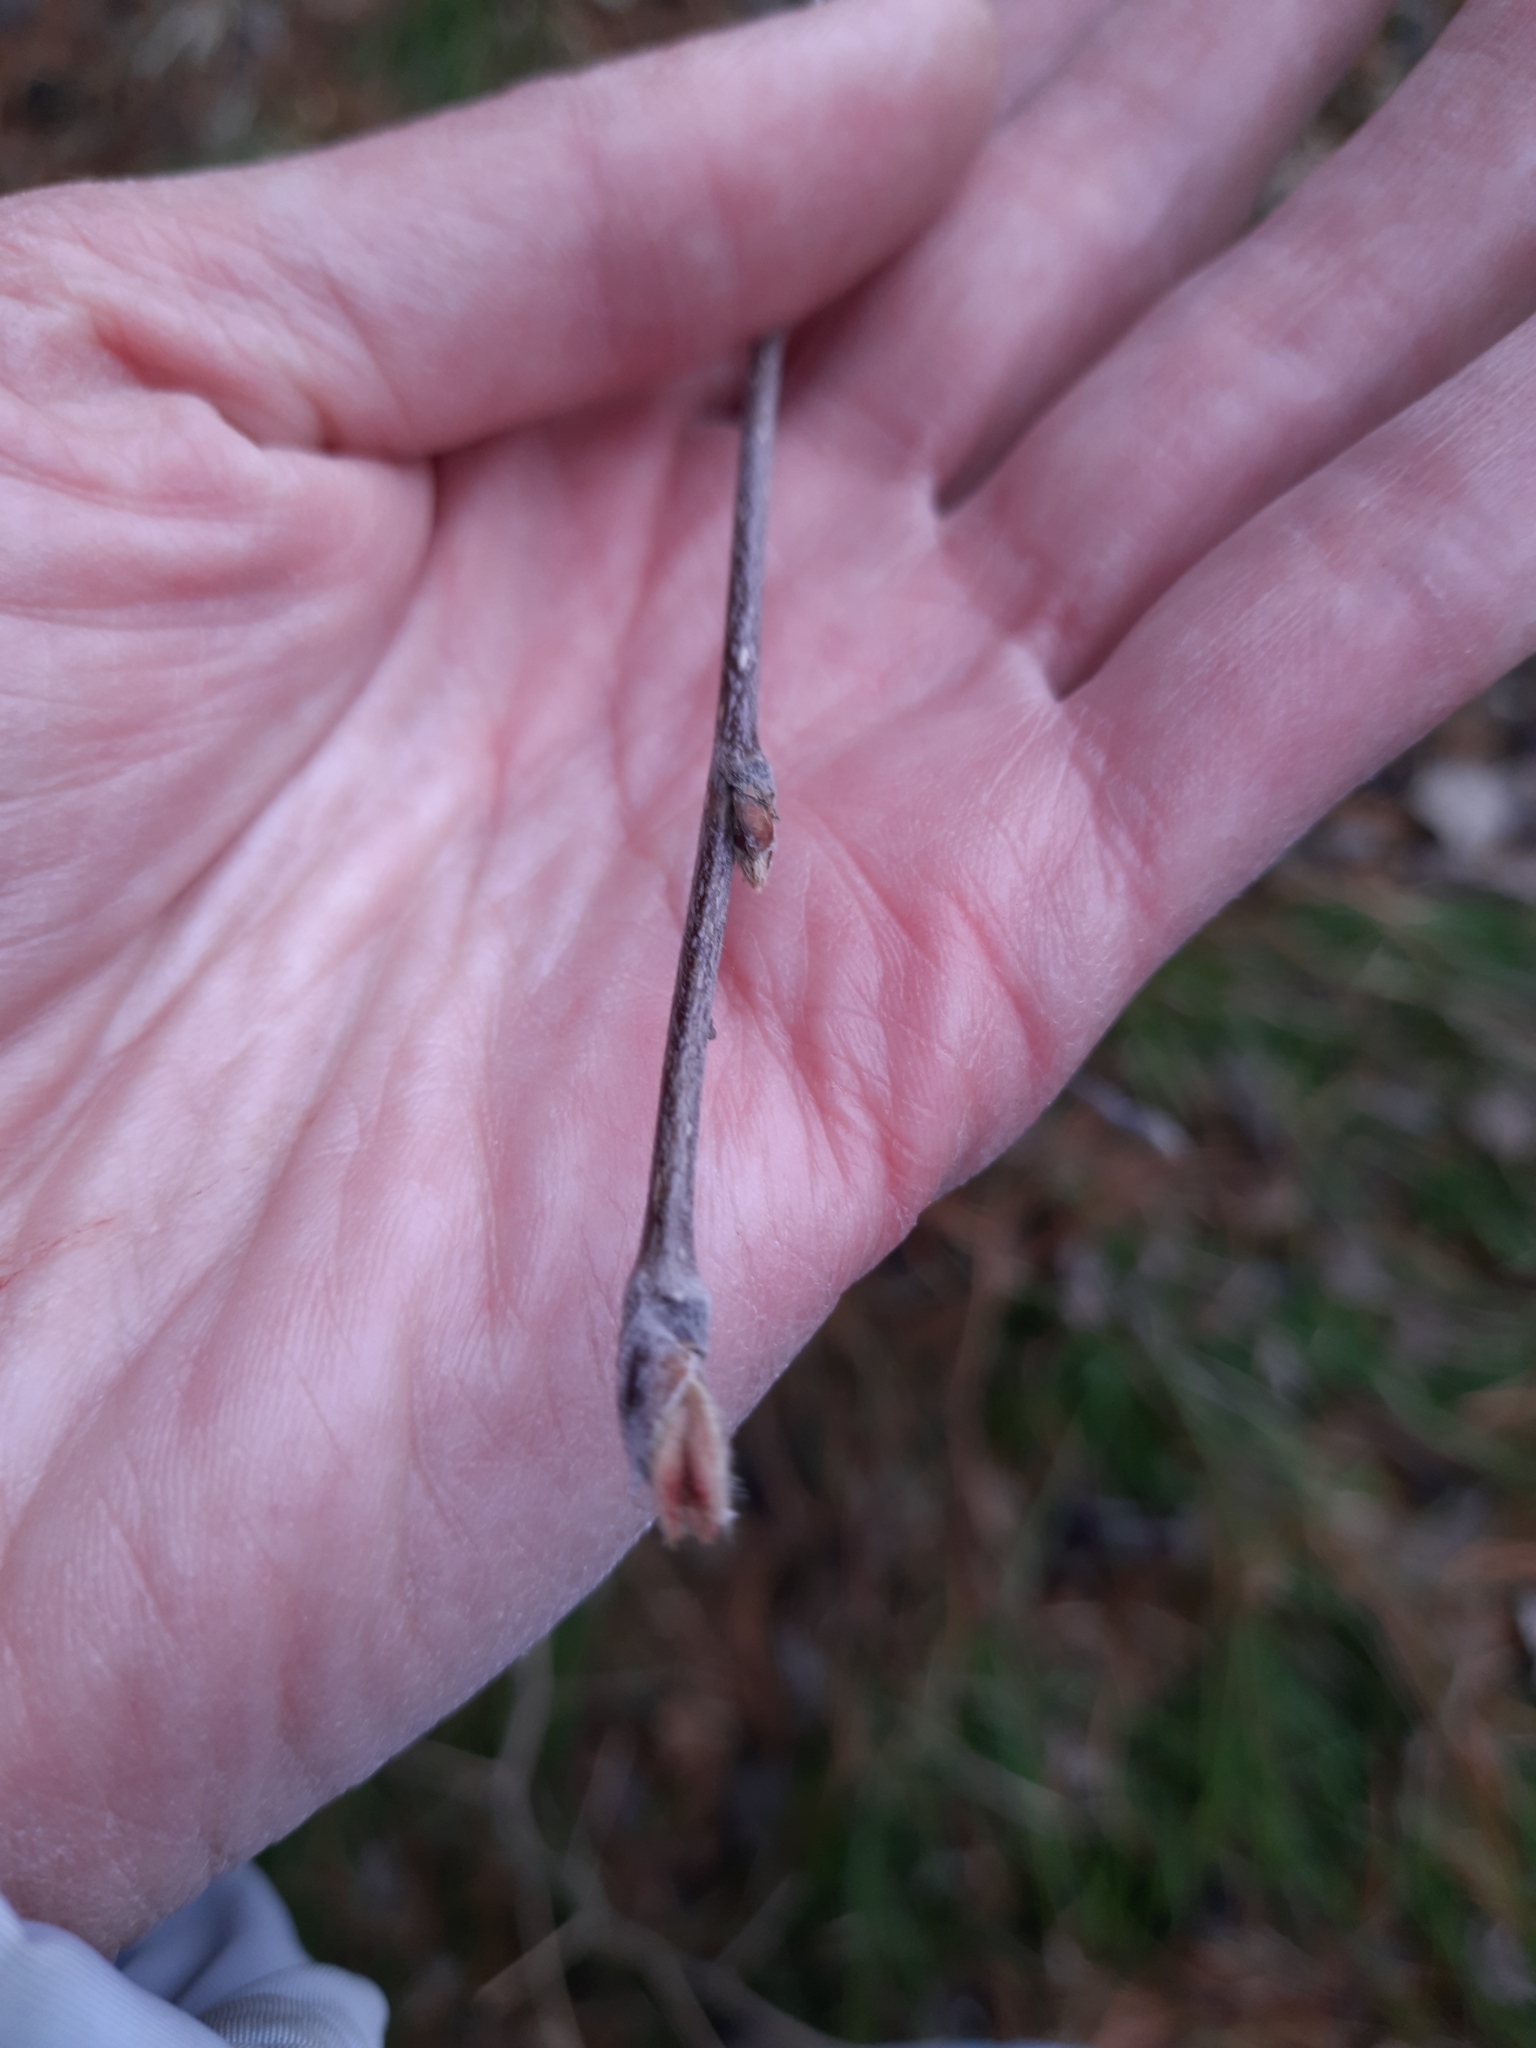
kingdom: Plantae
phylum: Tracheophyta
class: Magnoliopsida
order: Rosales
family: Rosaceae
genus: Sorbus
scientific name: Sorbus aucuparia
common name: Rowan
